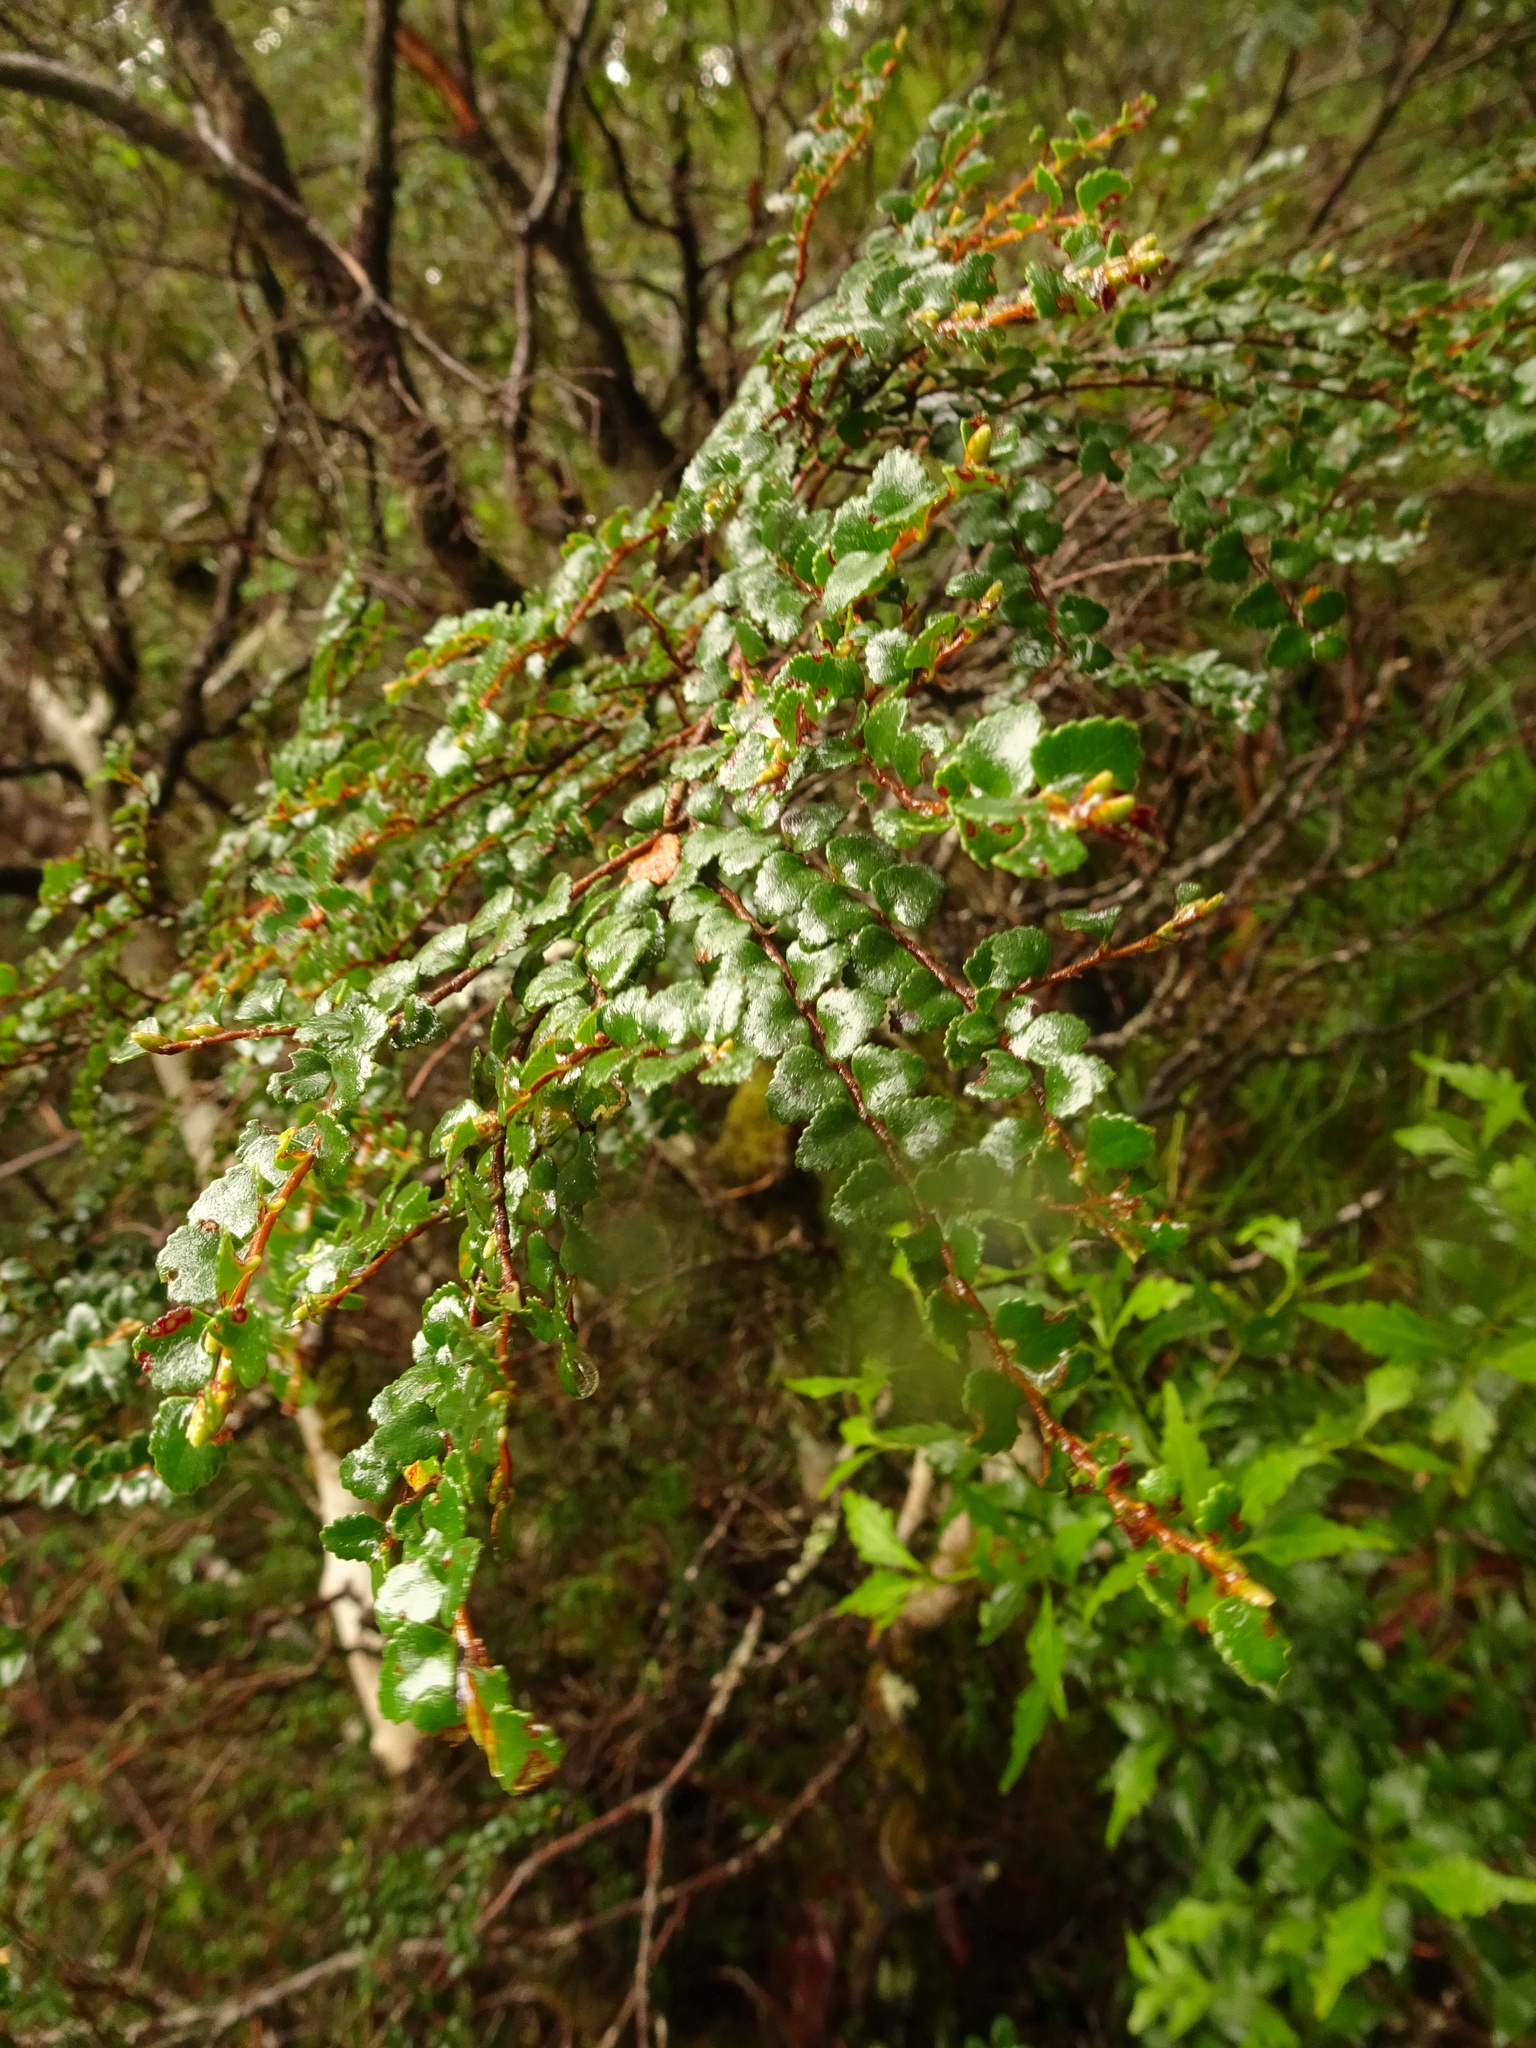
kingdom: Plantae
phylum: Tracheophyta
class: Magnoliopsida
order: Fagales
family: Nothofagaceae
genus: Nothofagus
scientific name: Nothofagus cunninghamii
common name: Myrtle beech
